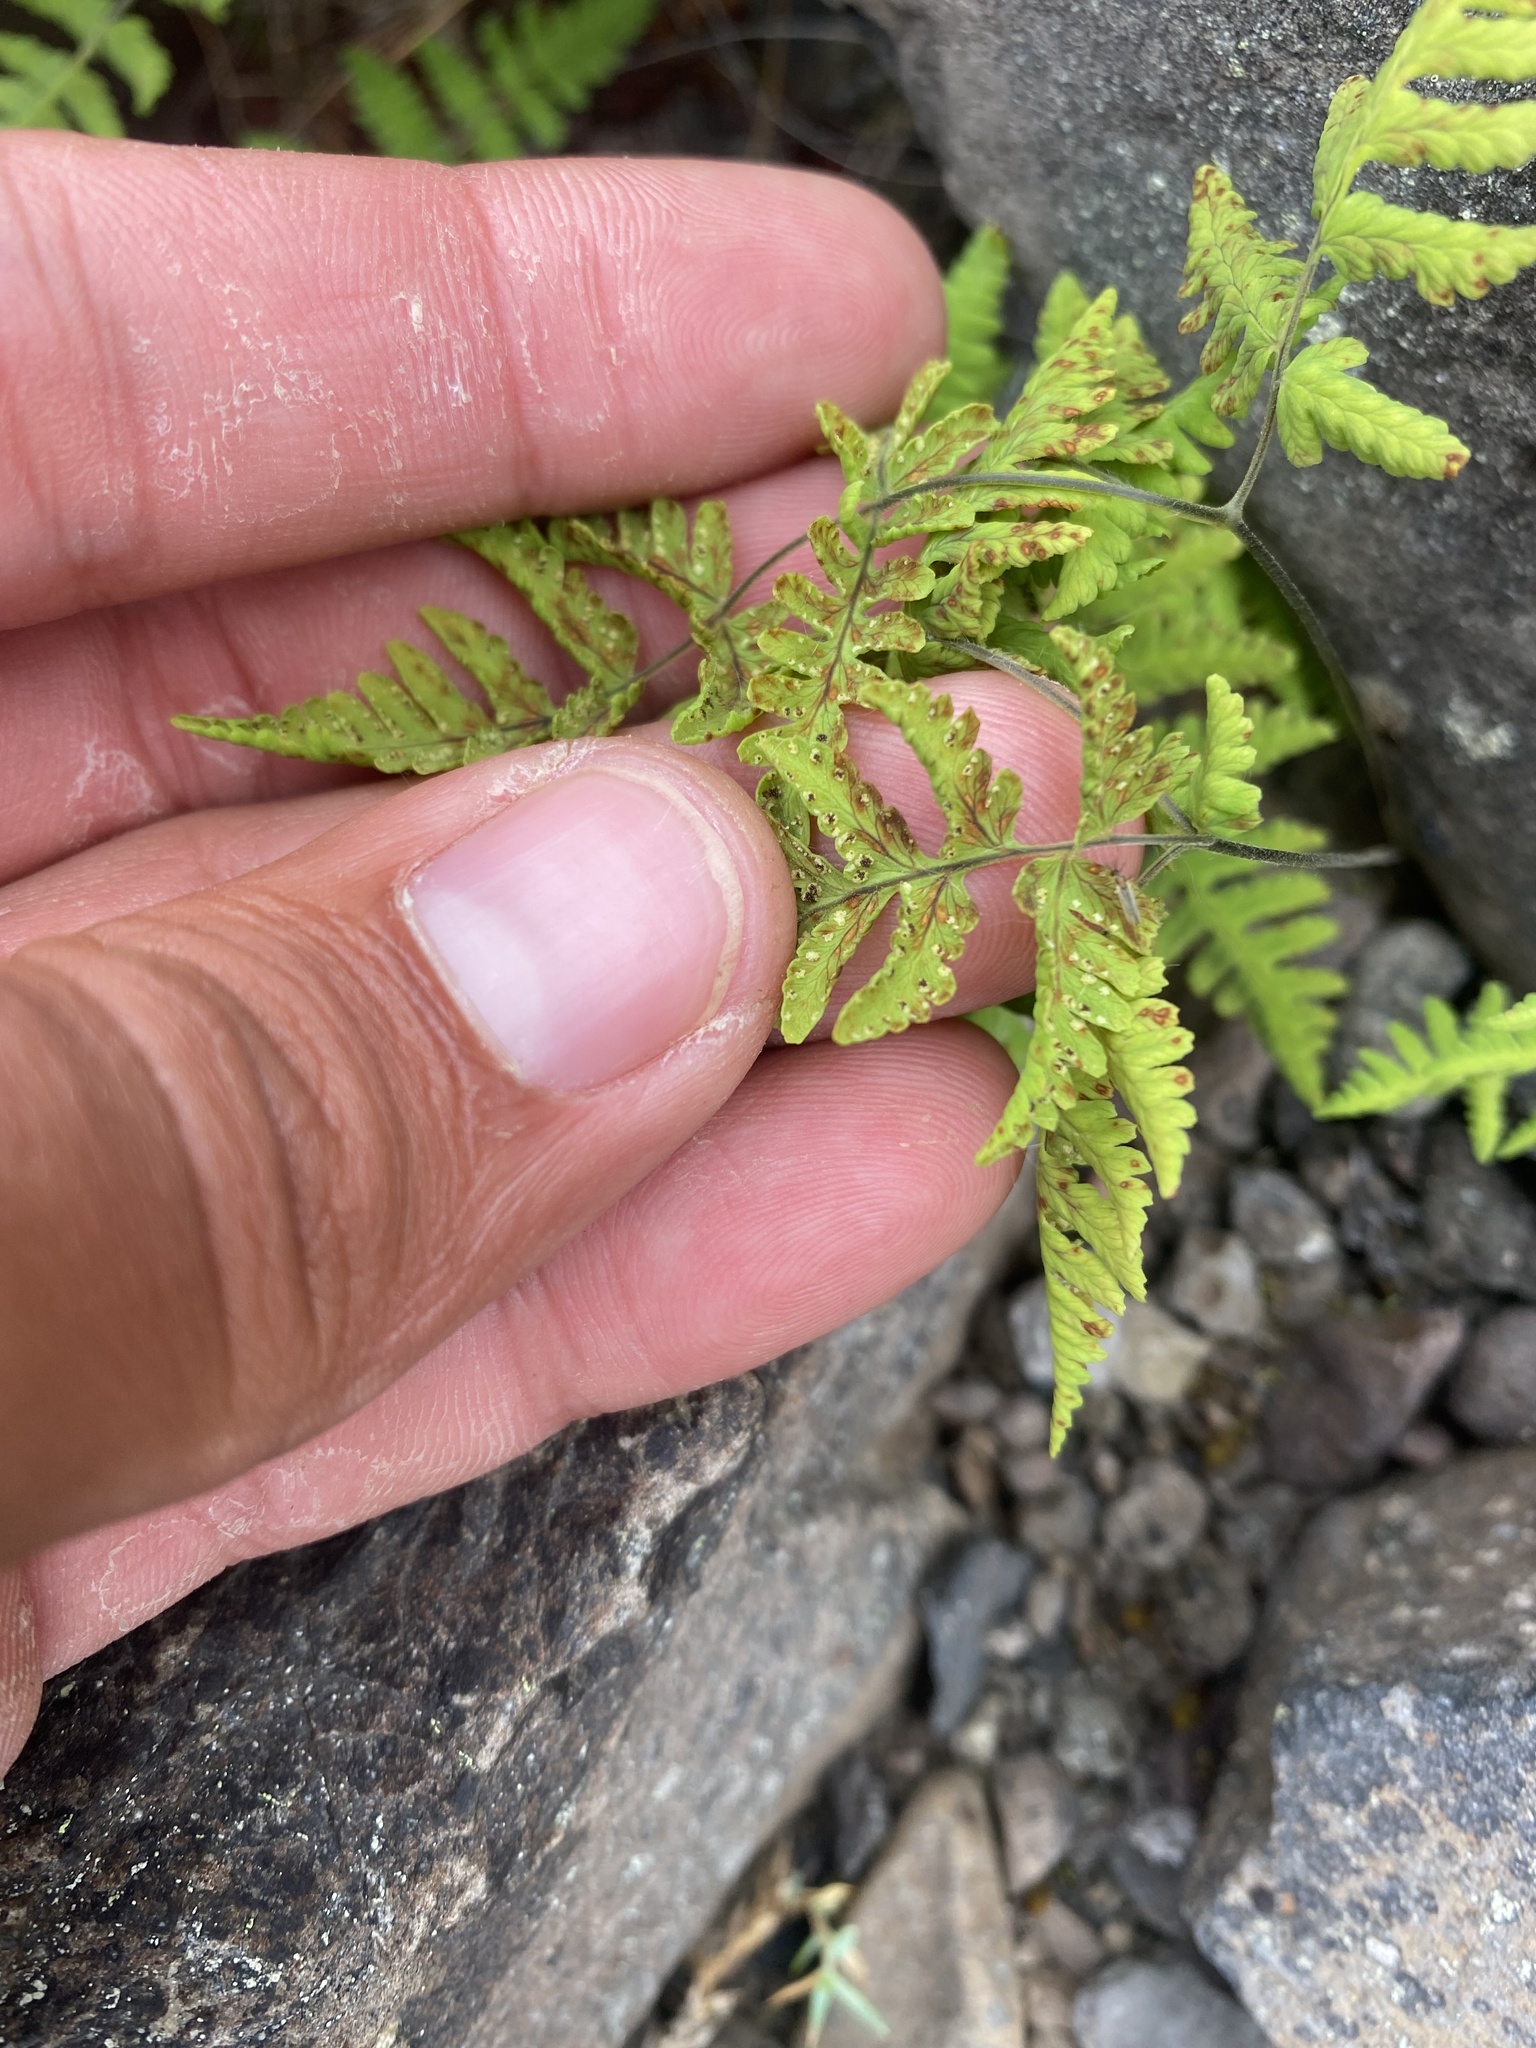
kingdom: Plantae
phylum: Tracheophyta
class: Polypodiopsida
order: Polypodiales
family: Cystopteridaceae
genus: Gymnocarpium
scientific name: Gymnocarpium jessoense
